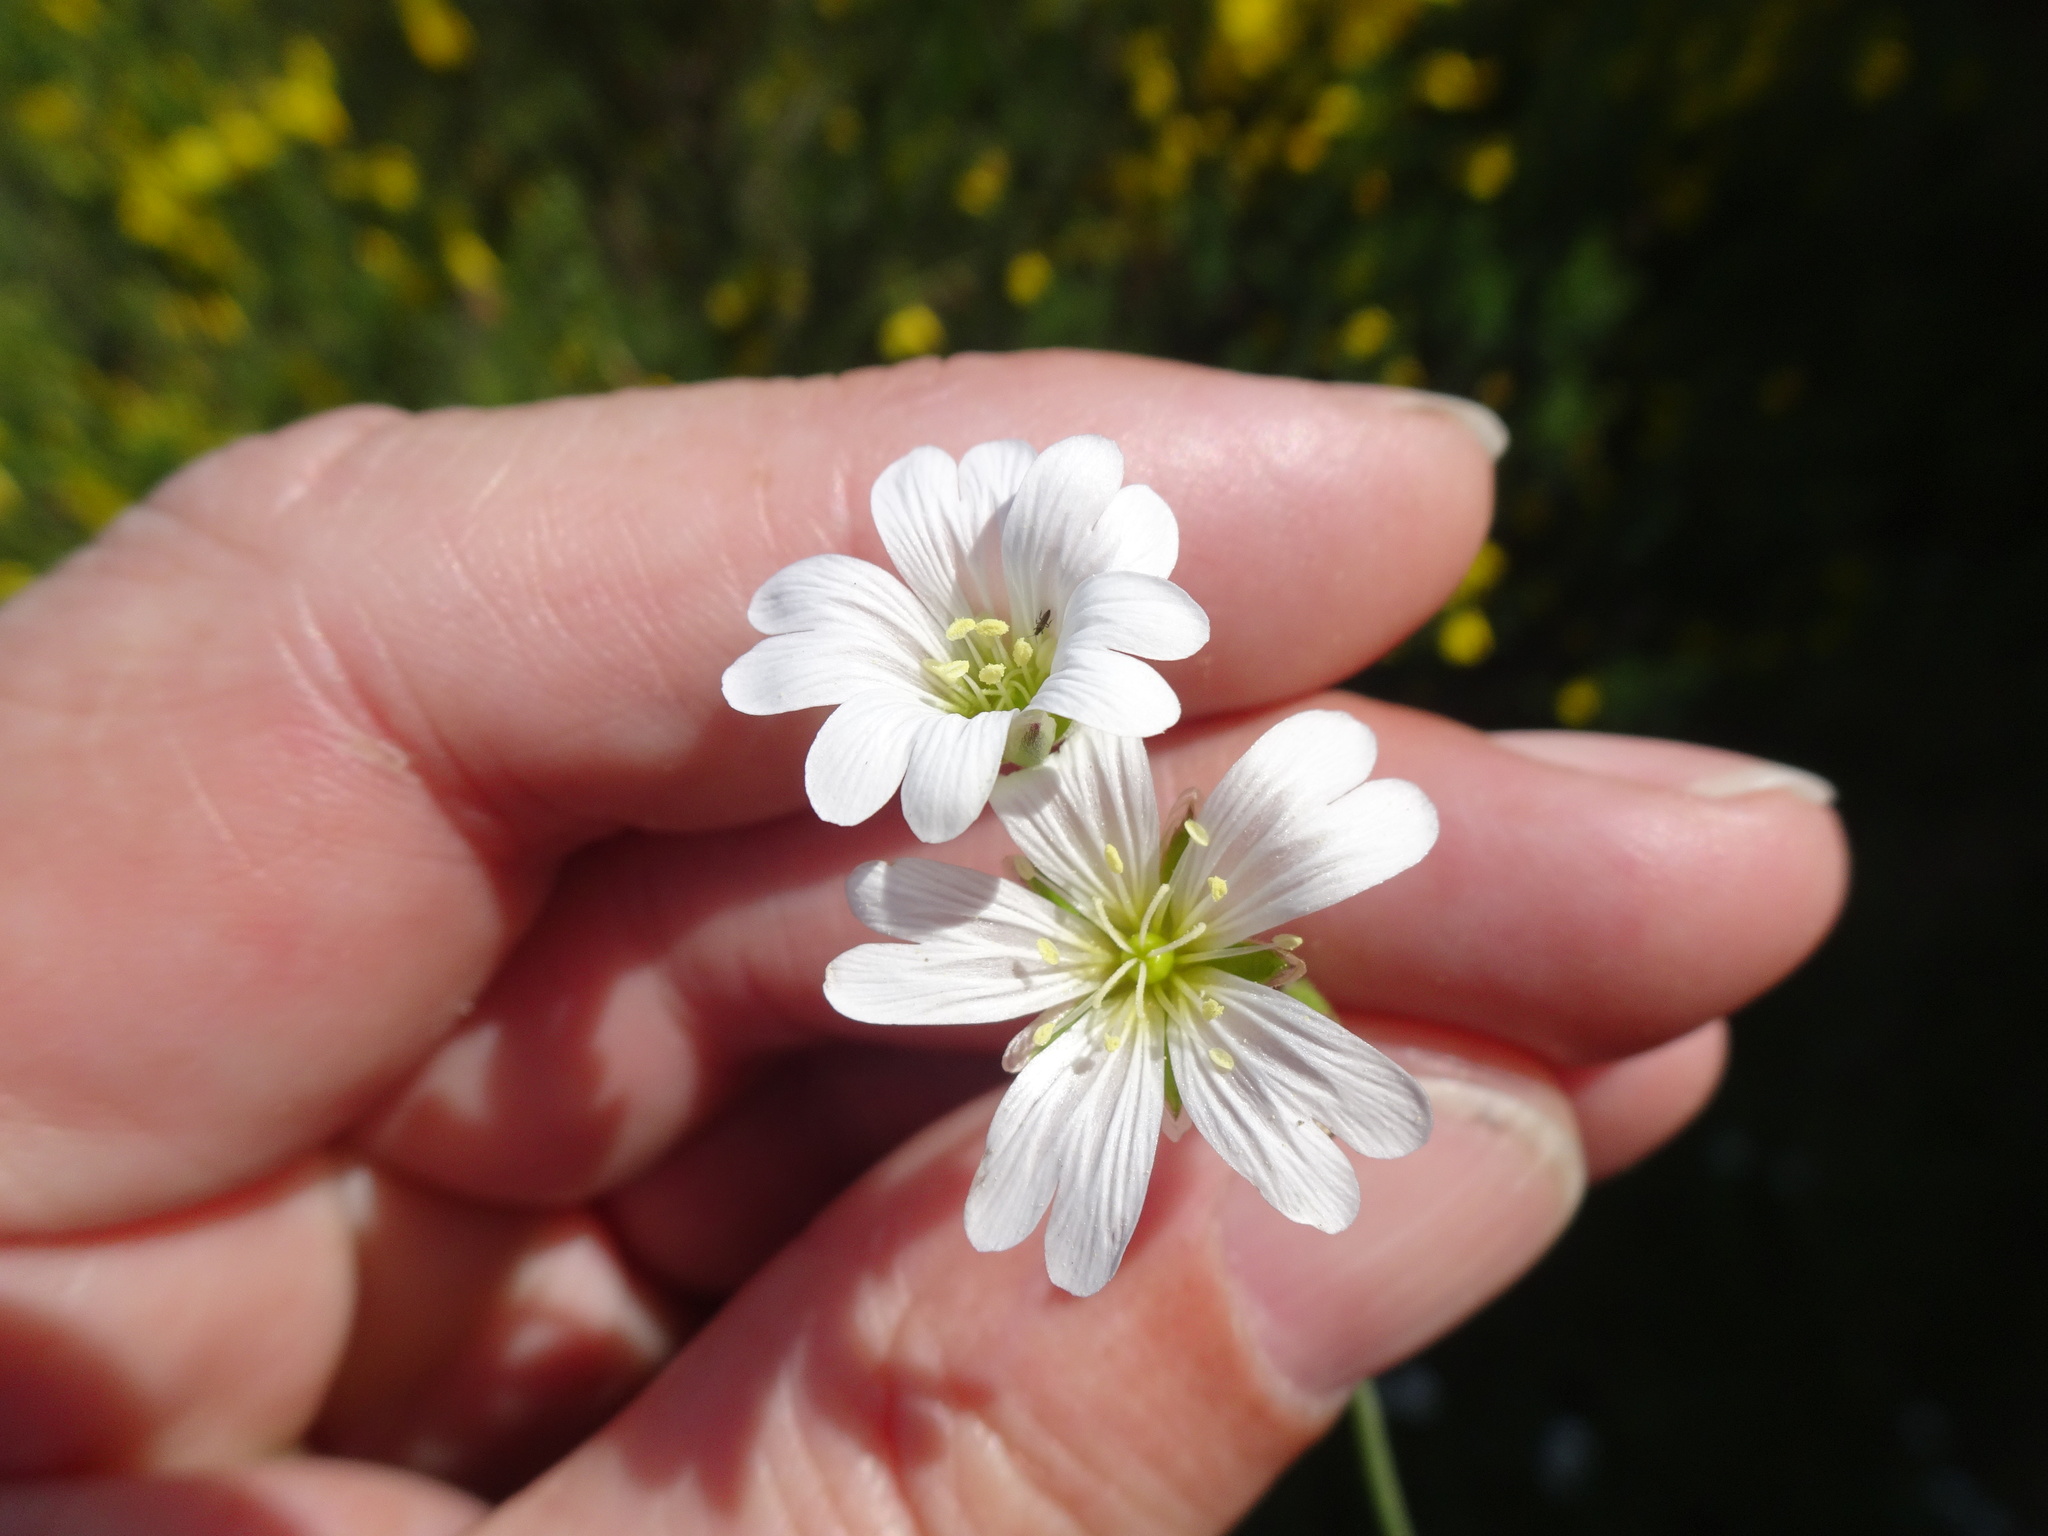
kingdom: Plantae
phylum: Tracheophyta
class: Magnoliopsida
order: Caryophyllales
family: Caryophyllaceae
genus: Cerastium
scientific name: Cerastium arvense
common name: Field mouse-ear
